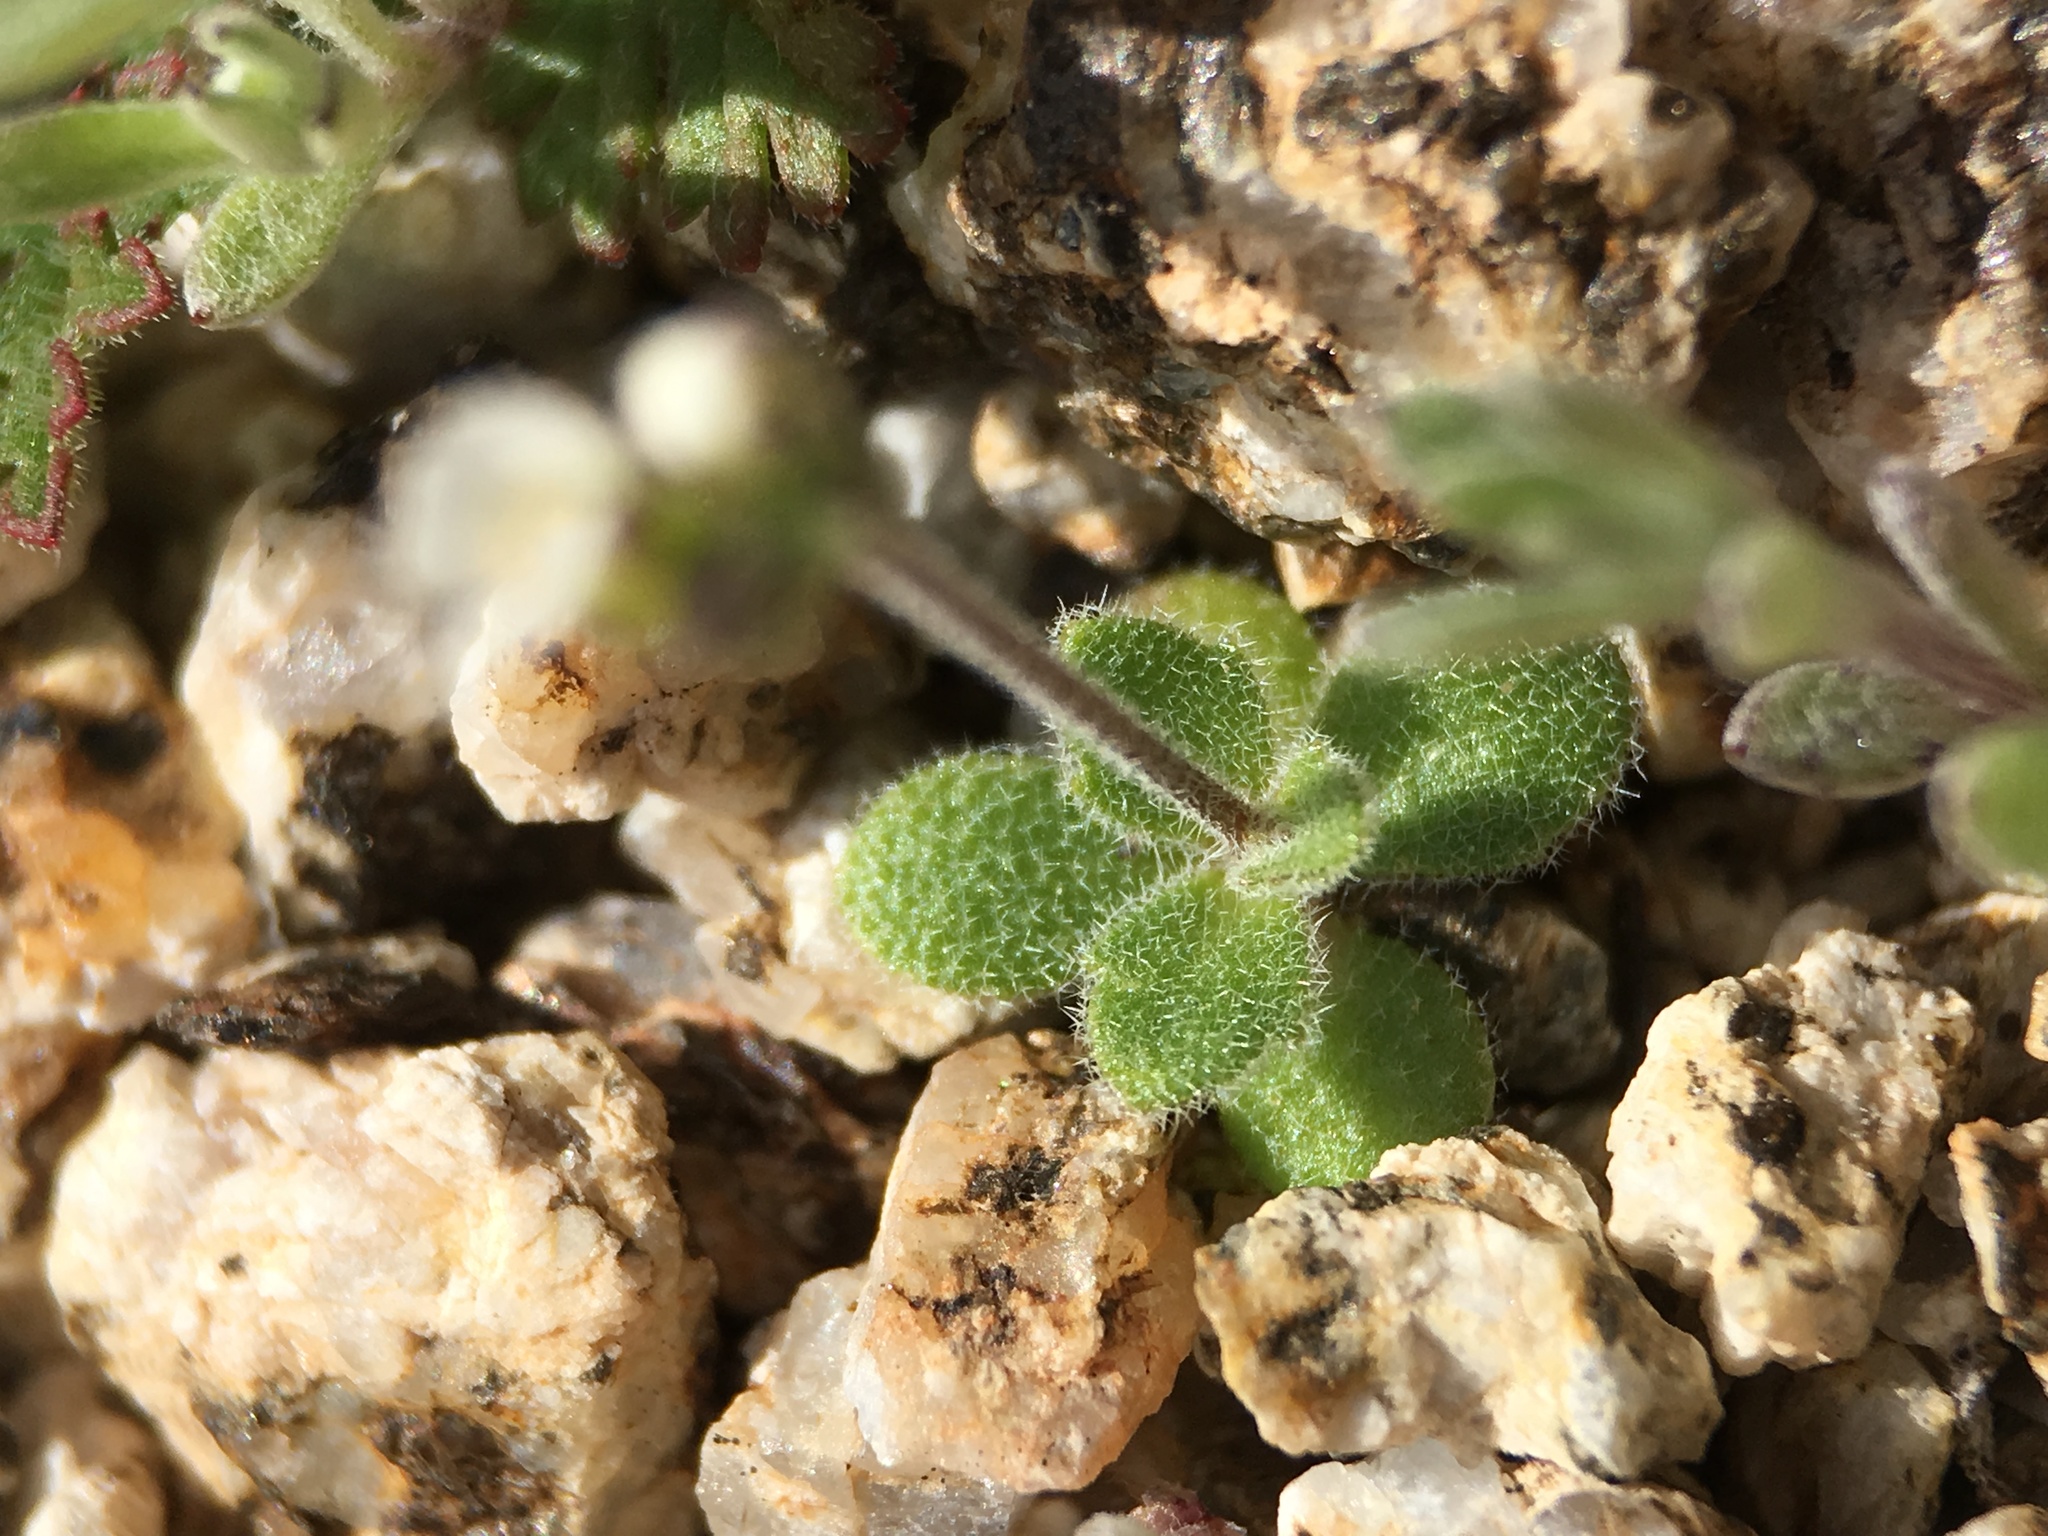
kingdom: Plantae
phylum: Tracheophyta
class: Magnoliopsida
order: Brassicales
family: Brassicaceae
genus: Tomostima
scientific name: Tomostima cuneifolia
